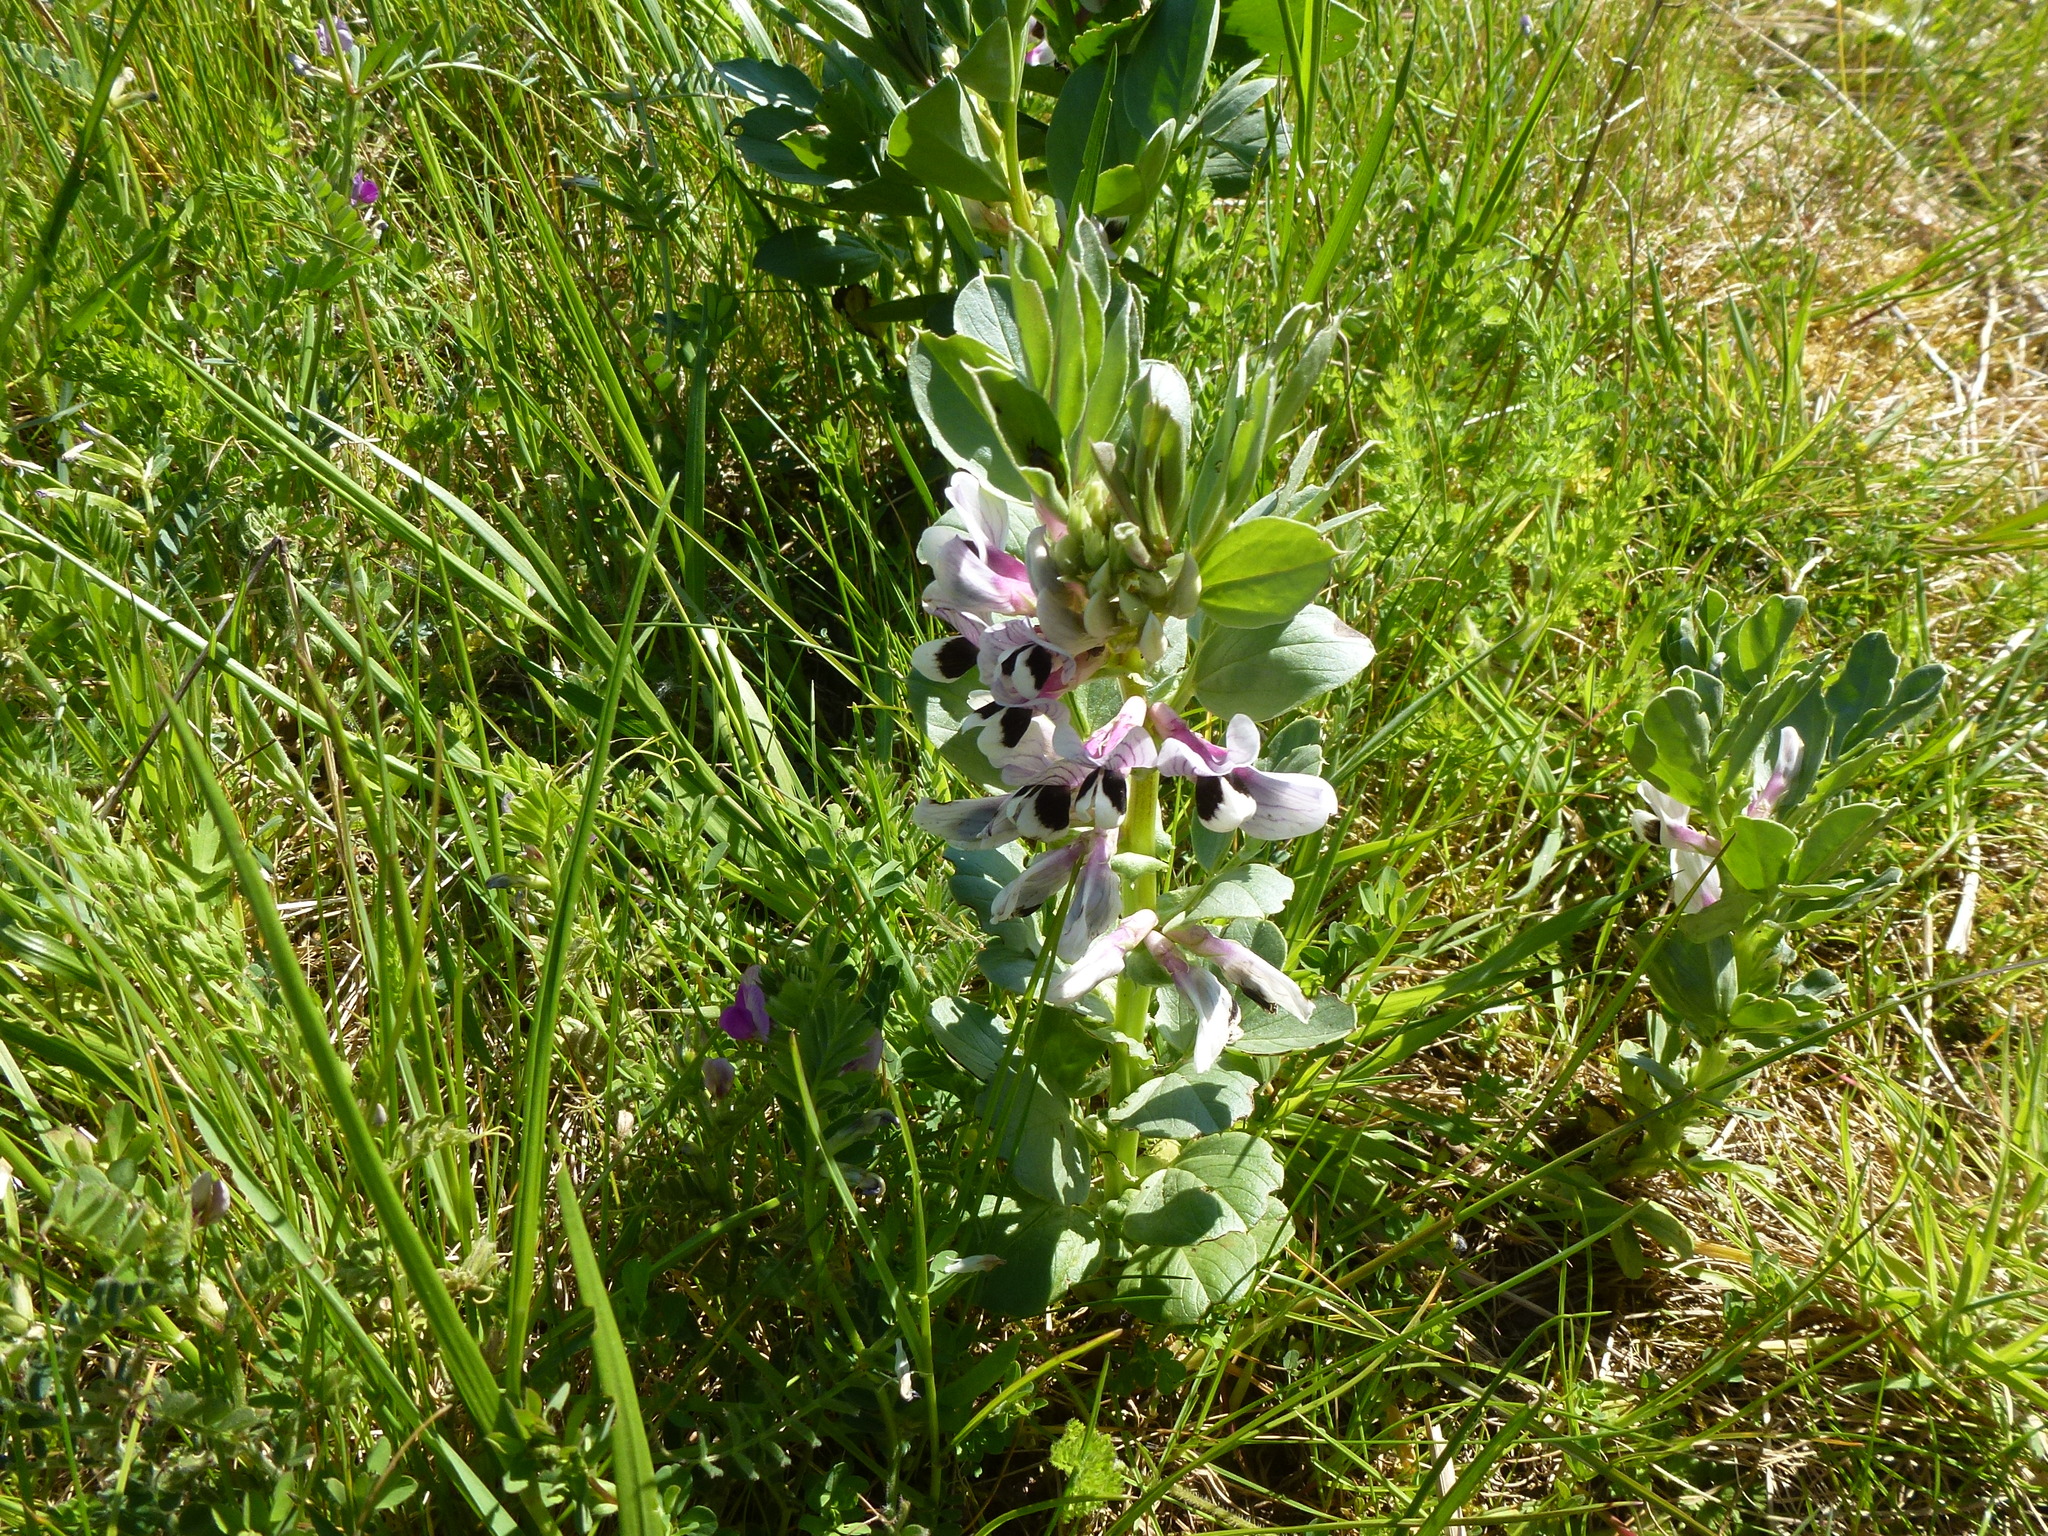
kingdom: Plantae
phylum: Tracheophyta
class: Magnoliopsida
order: Fabales
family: Fabaceae
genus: Vicia
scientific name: Vicia faba
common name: Broad bean
